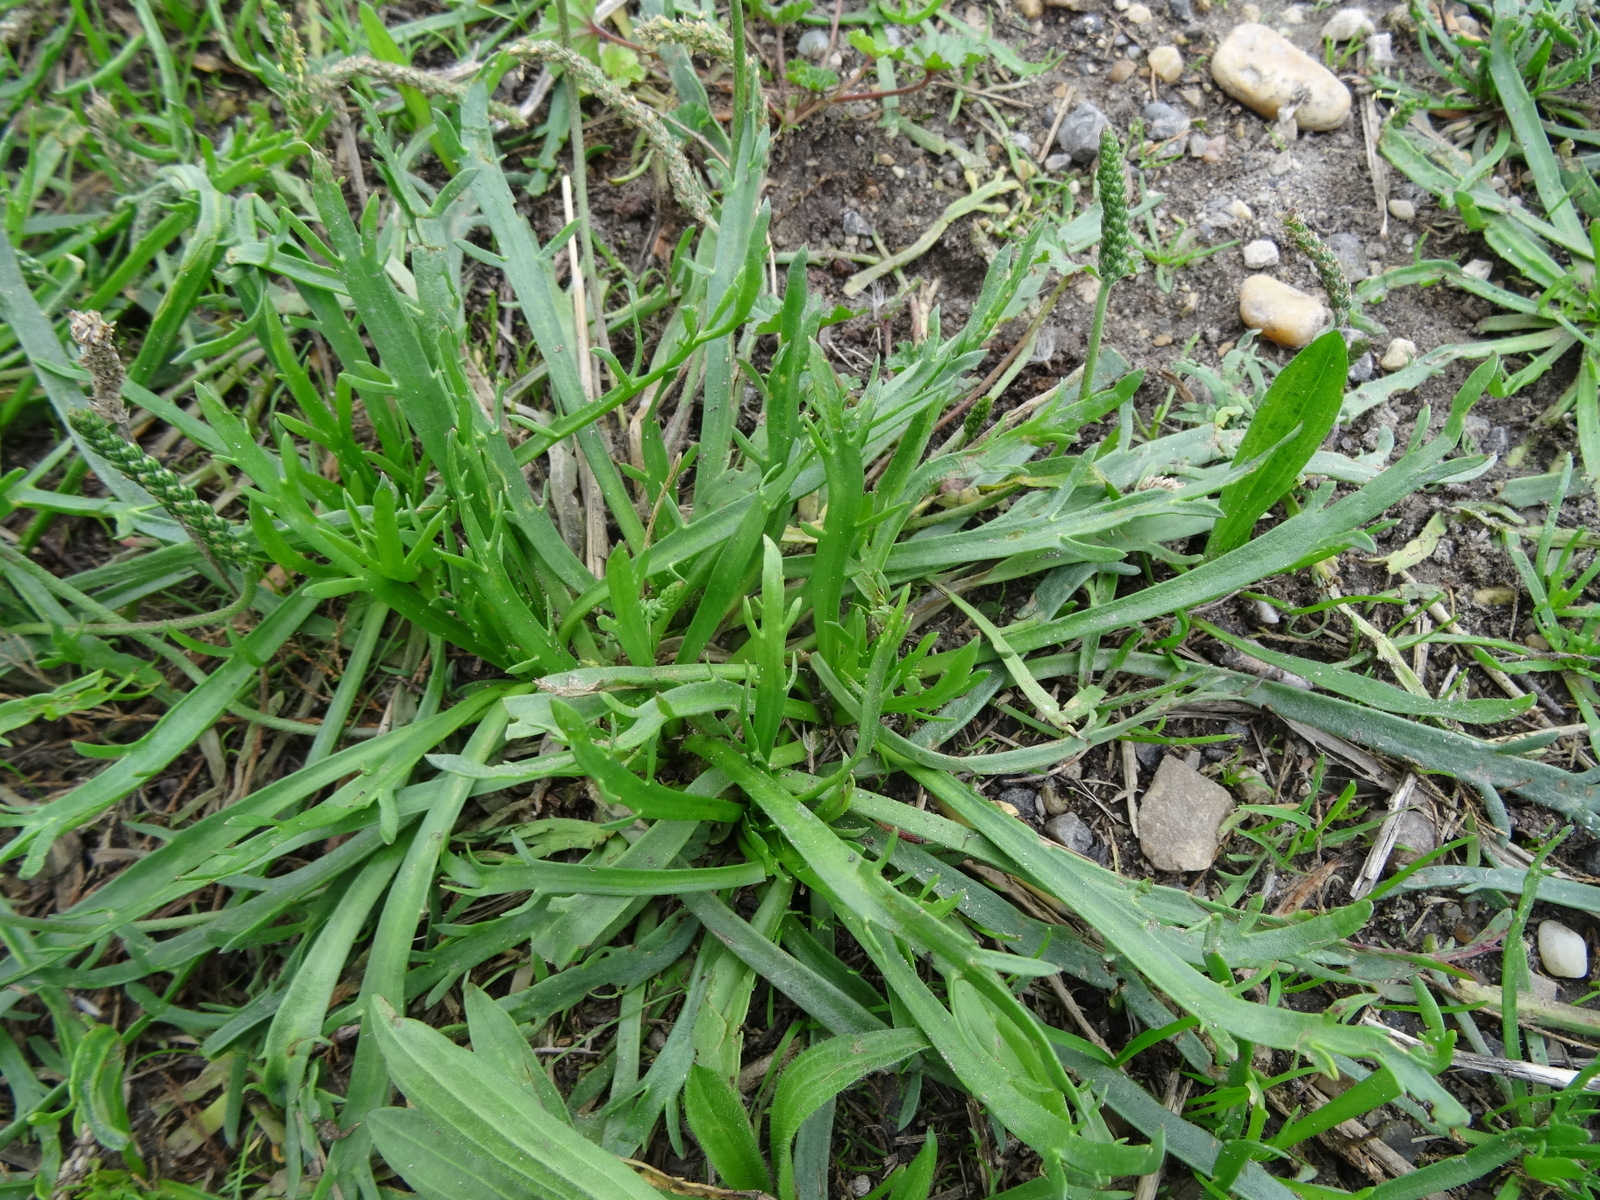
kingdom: Plantae
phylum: Tracheophyta
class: Magnoliopsida
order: Lamiales
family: Plantaginaceae
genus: Plantago
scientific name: Plantago coronopus
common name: Buck's-horn plantain
